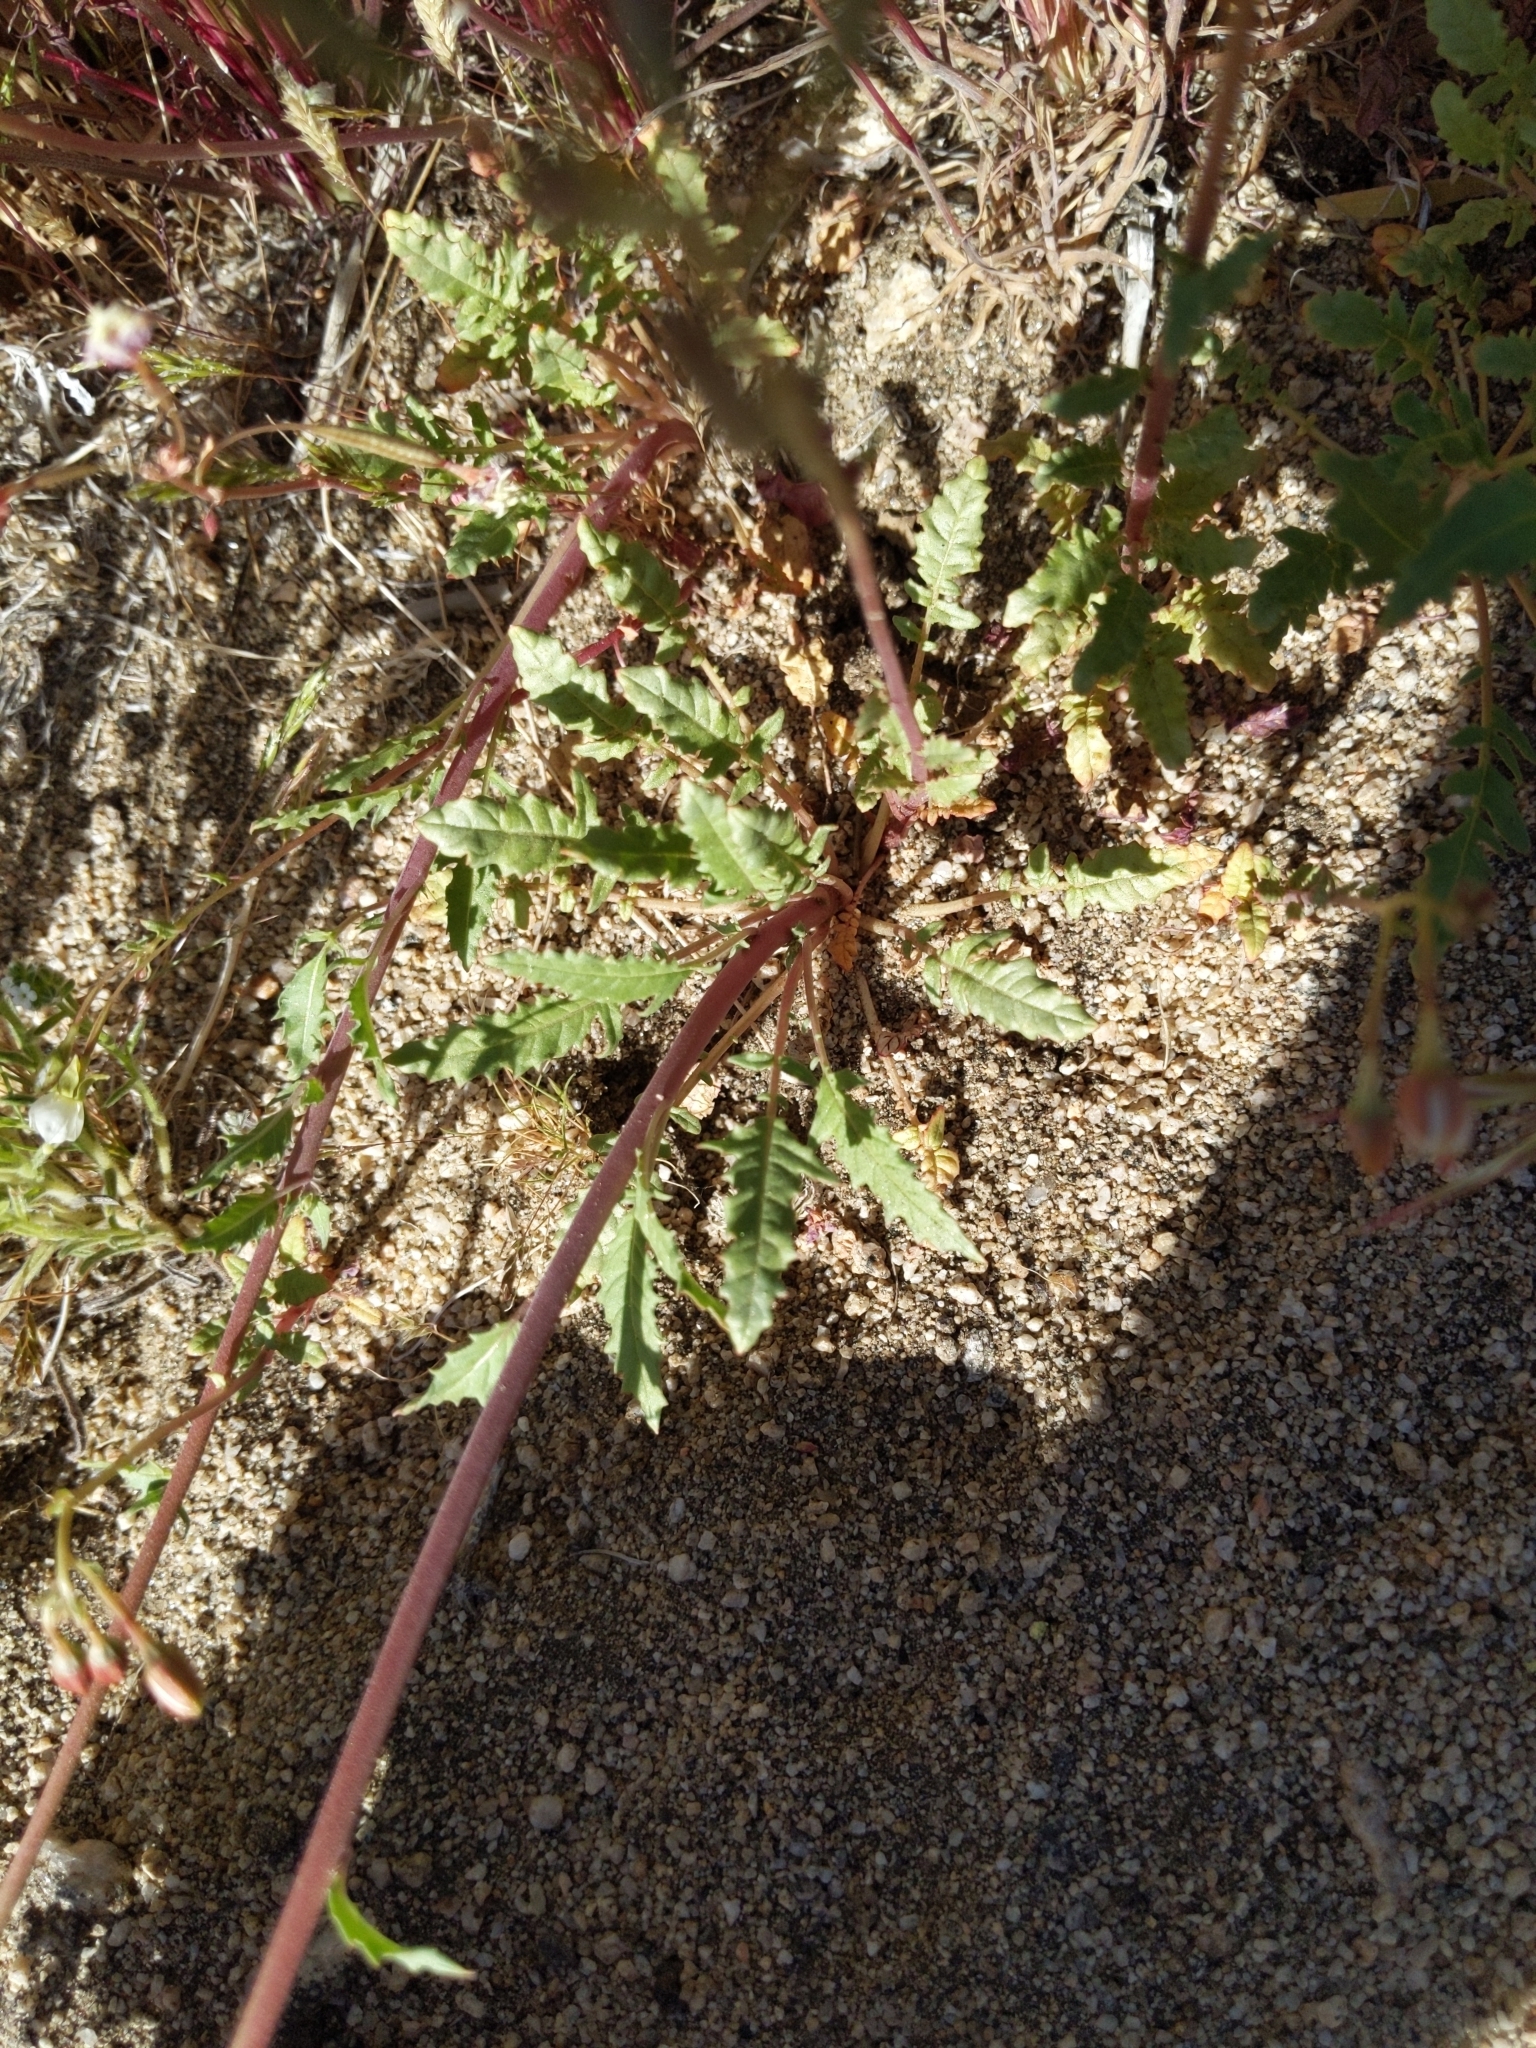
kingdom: Plantae
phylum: Tracheophyta
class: Magnoliopsida
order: Myrtales
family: Onagraceae
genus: Chylismia
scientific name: Chylismia claviformis
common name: Browneyes
